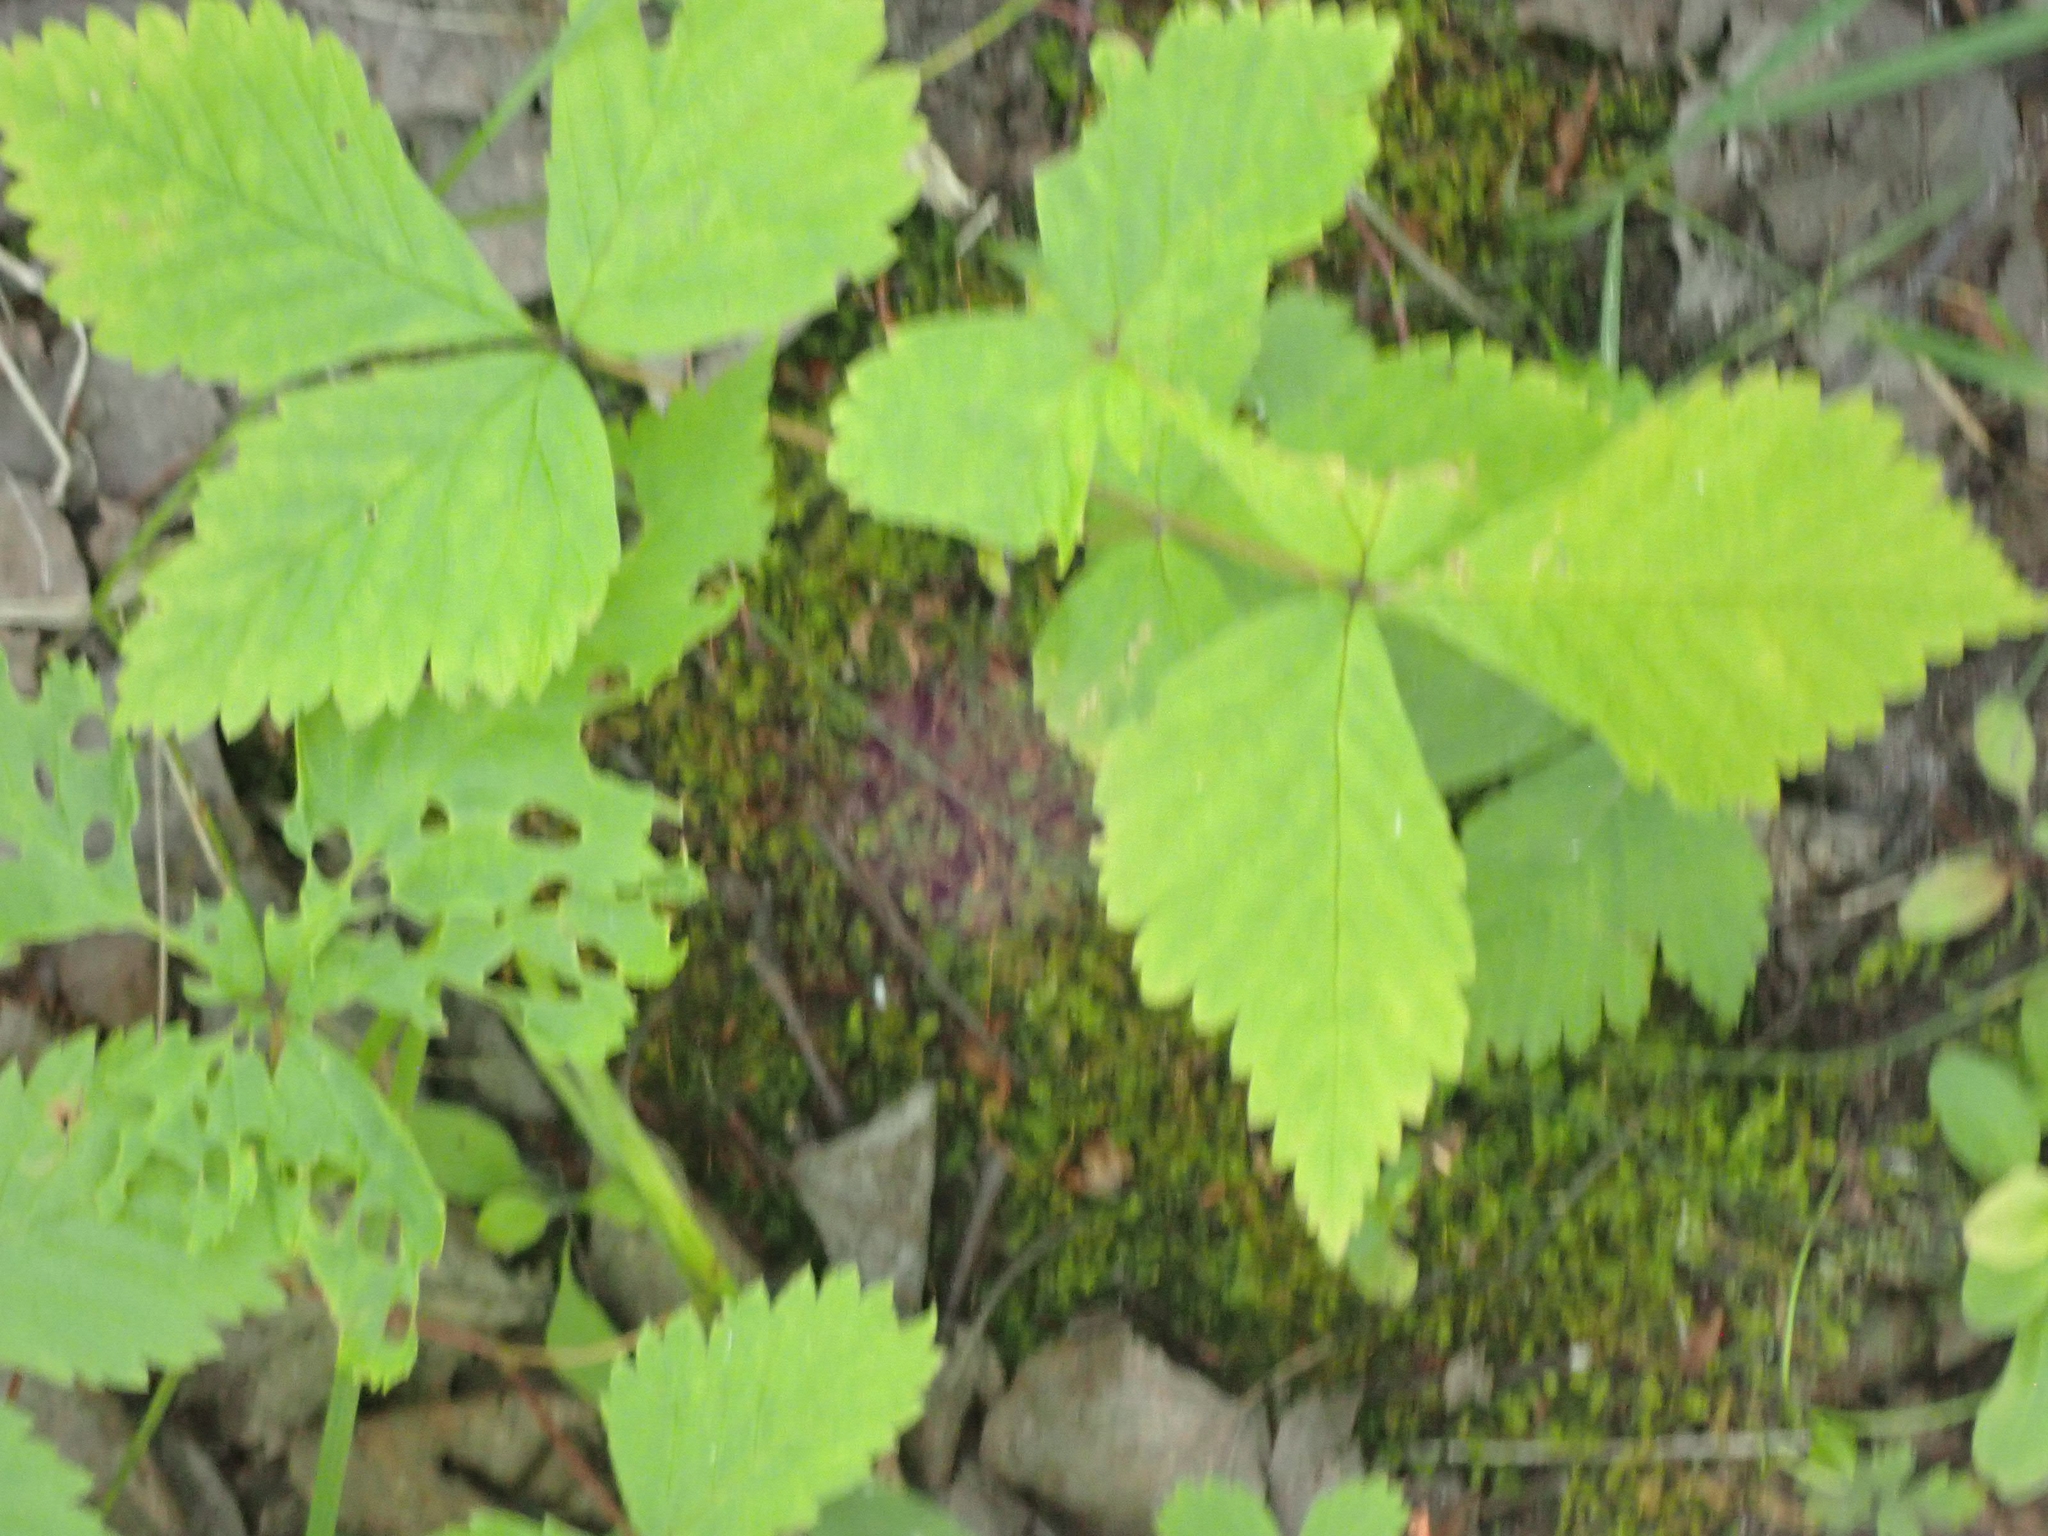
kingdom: Plantae
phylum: Tracheophyta
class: Magnoliopsida
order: Rosales
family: Rosaceae
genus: Rubus
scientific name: Rubus pubescens
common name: Dwarf raspberry
